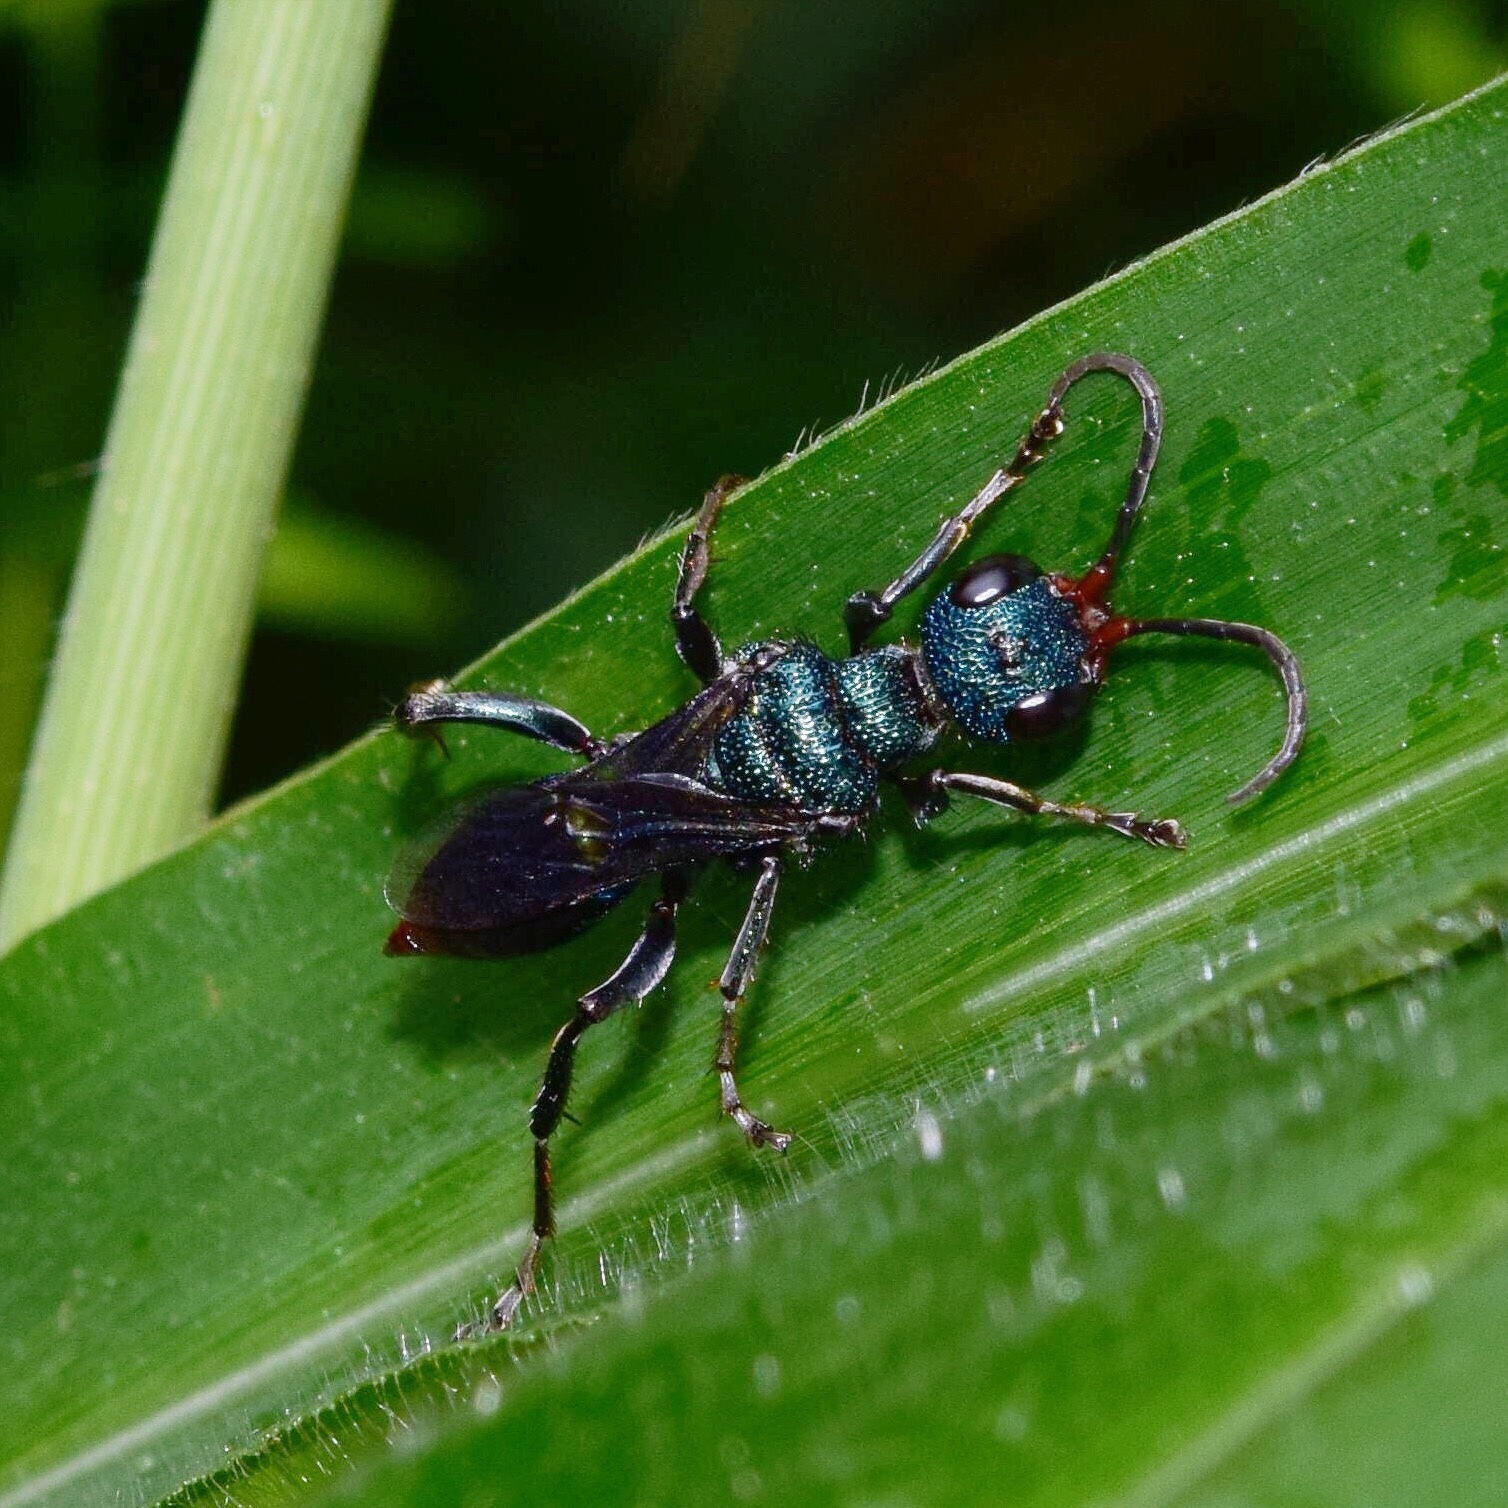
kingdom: Animalia
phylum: Arthropoda
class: Insecta
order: Hymenoptera
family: Ampulicidae
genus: Ampulex
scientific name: Ampulex apicalis
